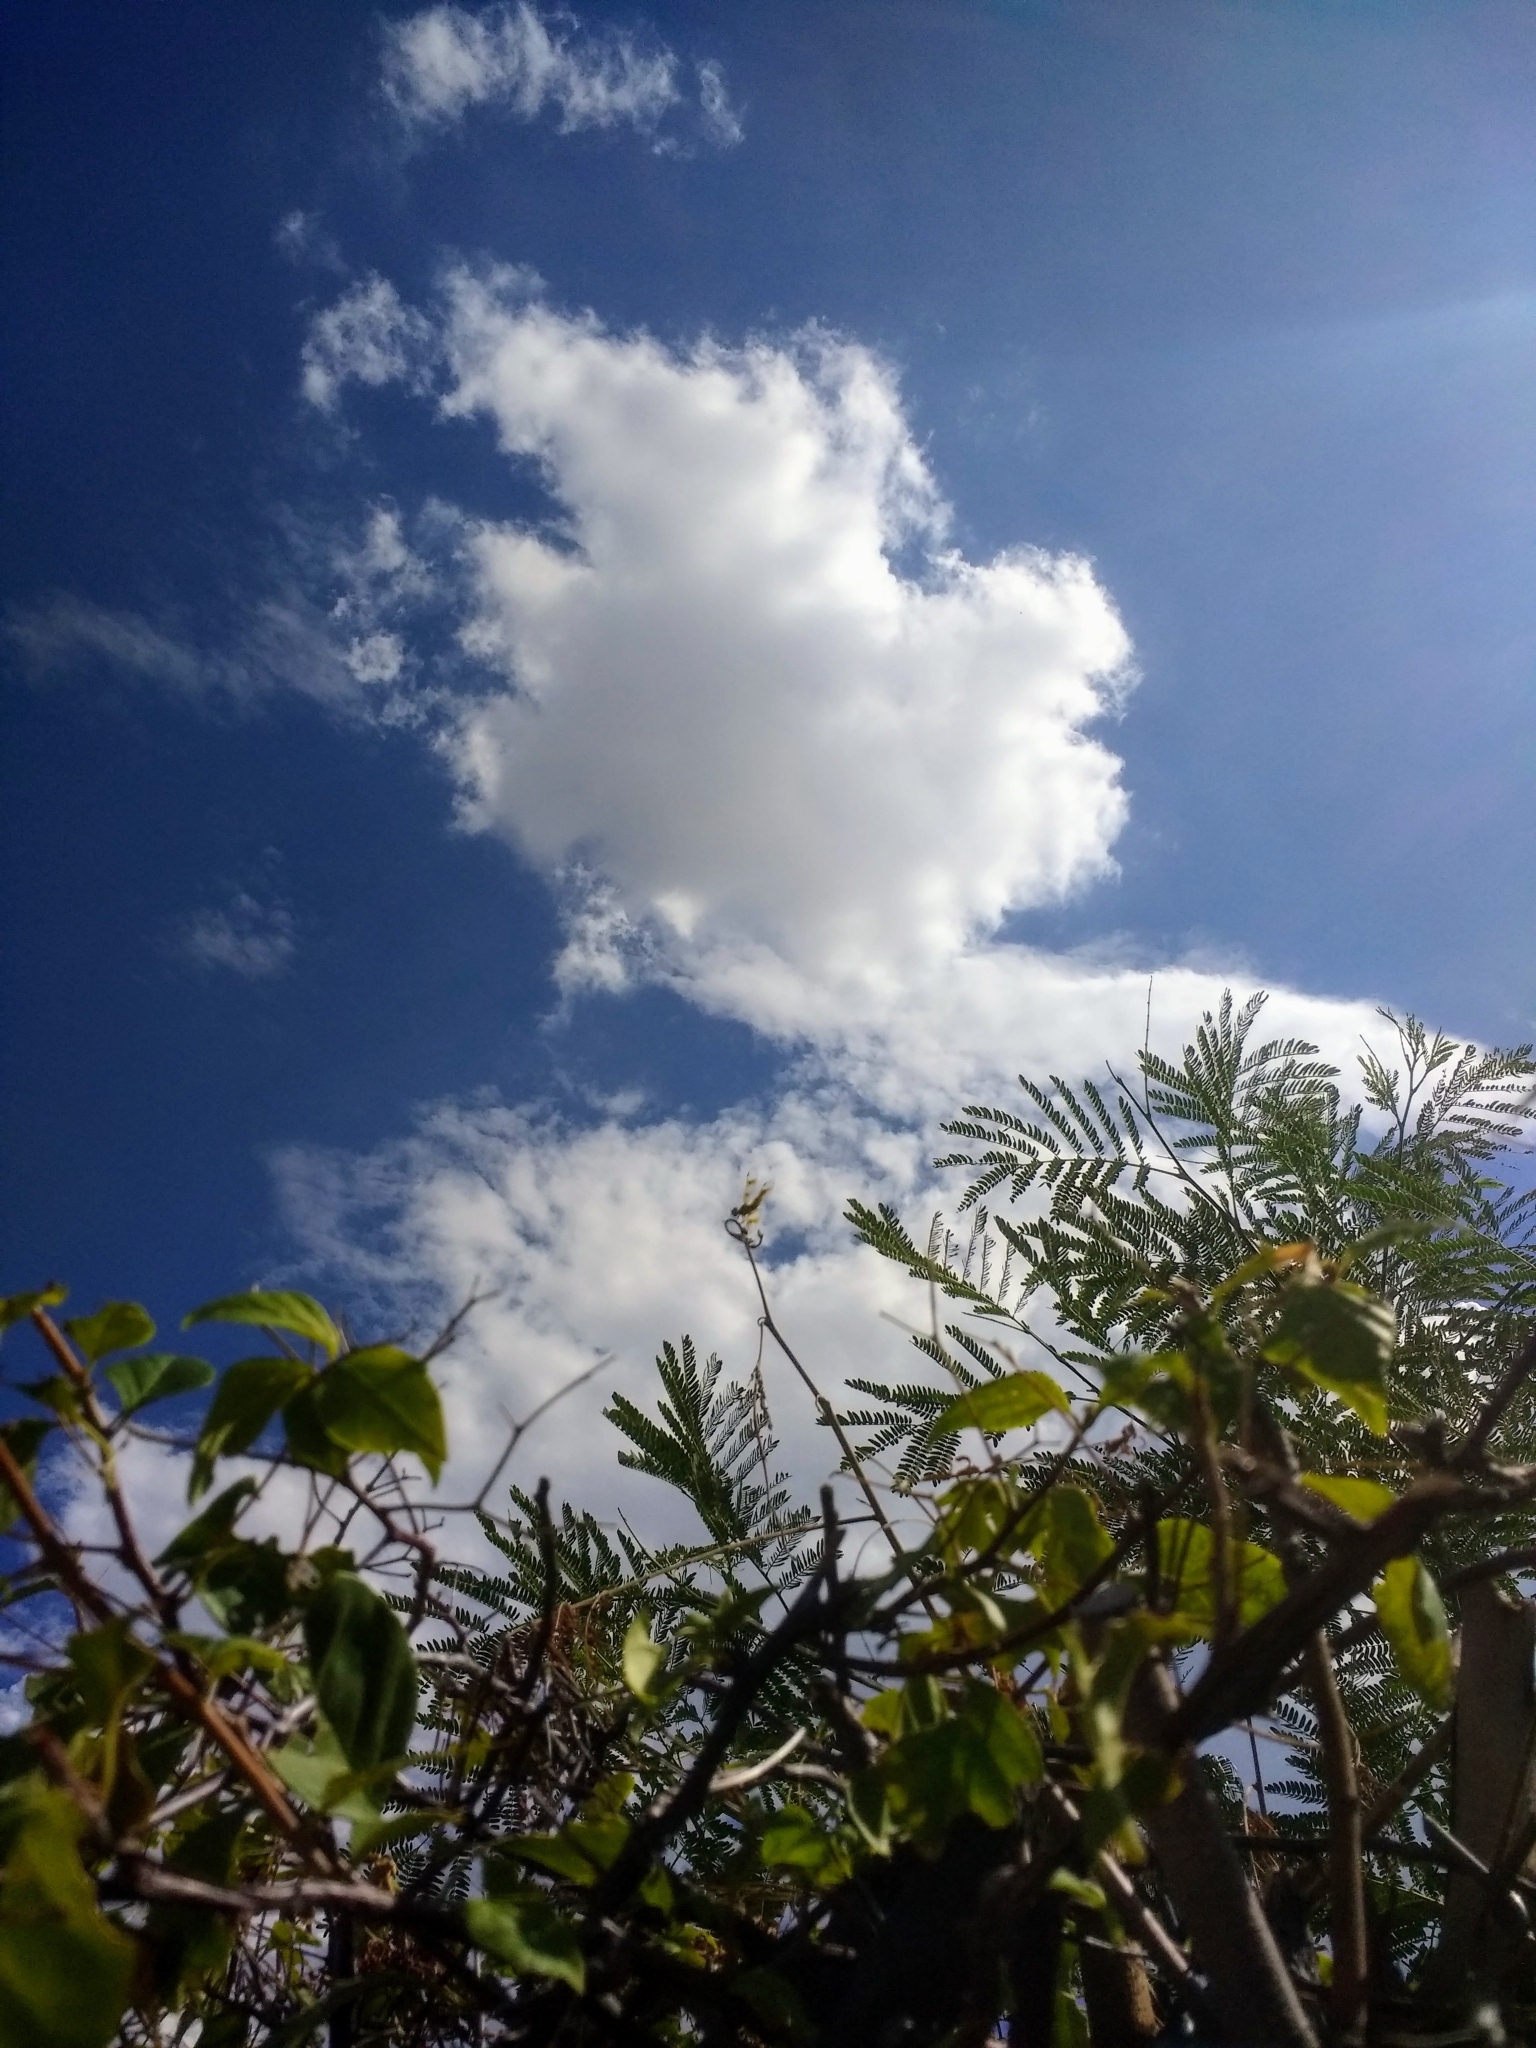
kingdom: Animalia
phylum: Arthropoda
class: Insecta
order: Odonata
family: Libellulidae
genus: Perithemis
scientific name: Perithemis intensa
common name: Mexican amberwing
